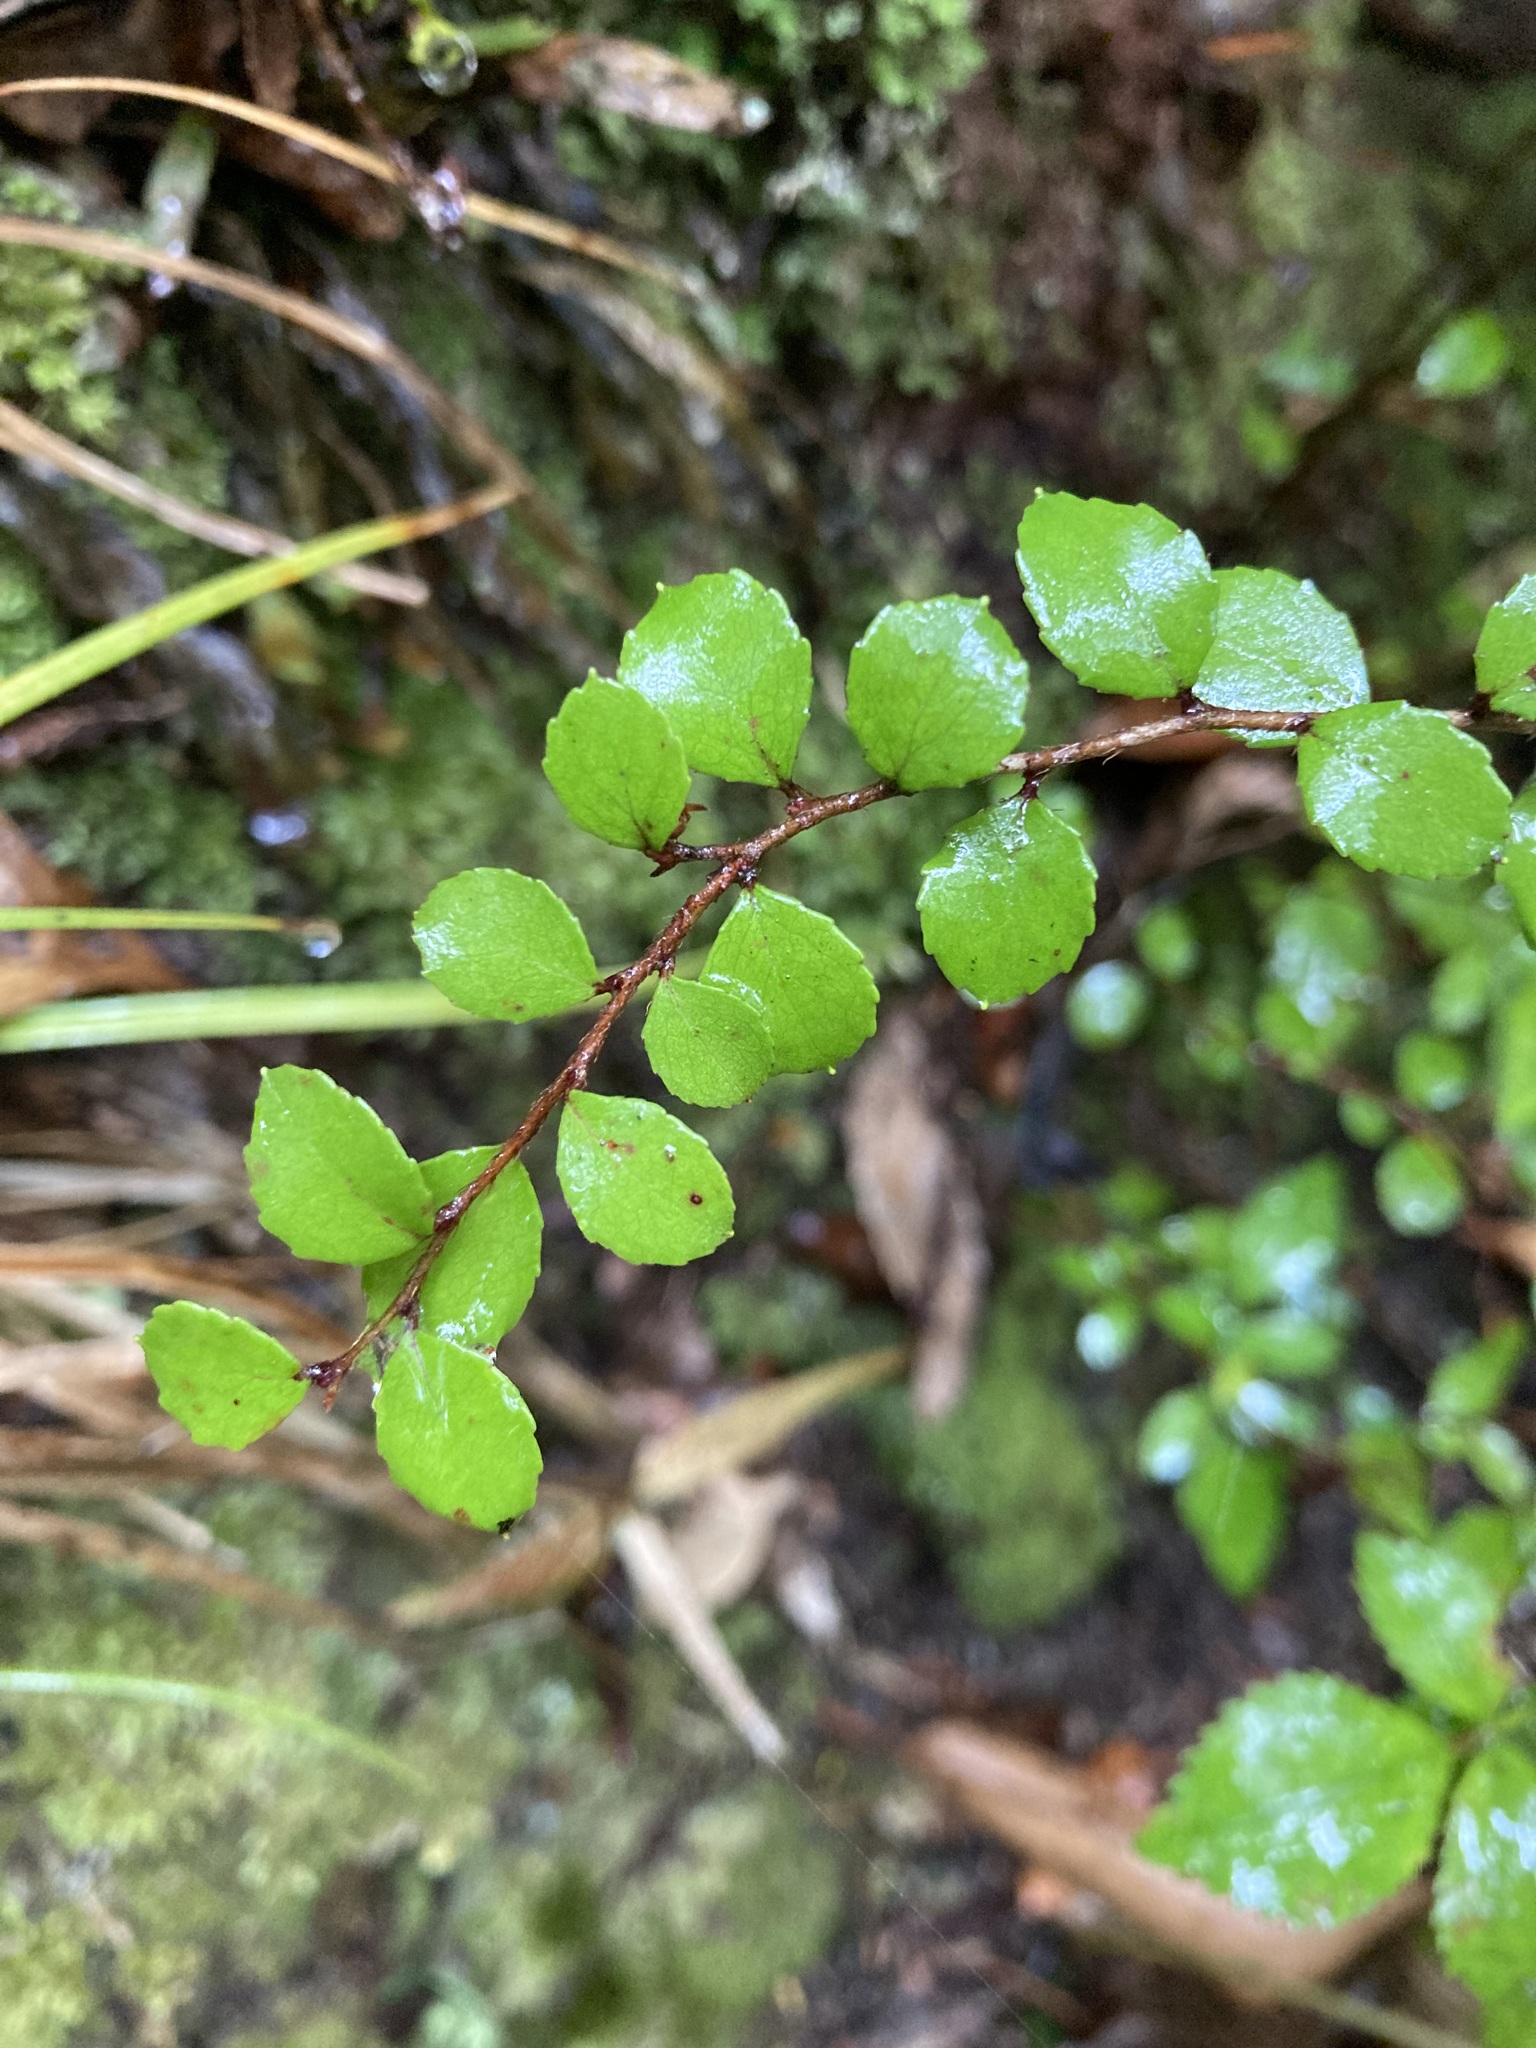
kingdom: Plantae
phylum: Tracheophyta
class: Magnoliopsida
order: Ericales
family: Ericaceae
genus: Gaultheria
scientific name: Gaultheria antipoda
